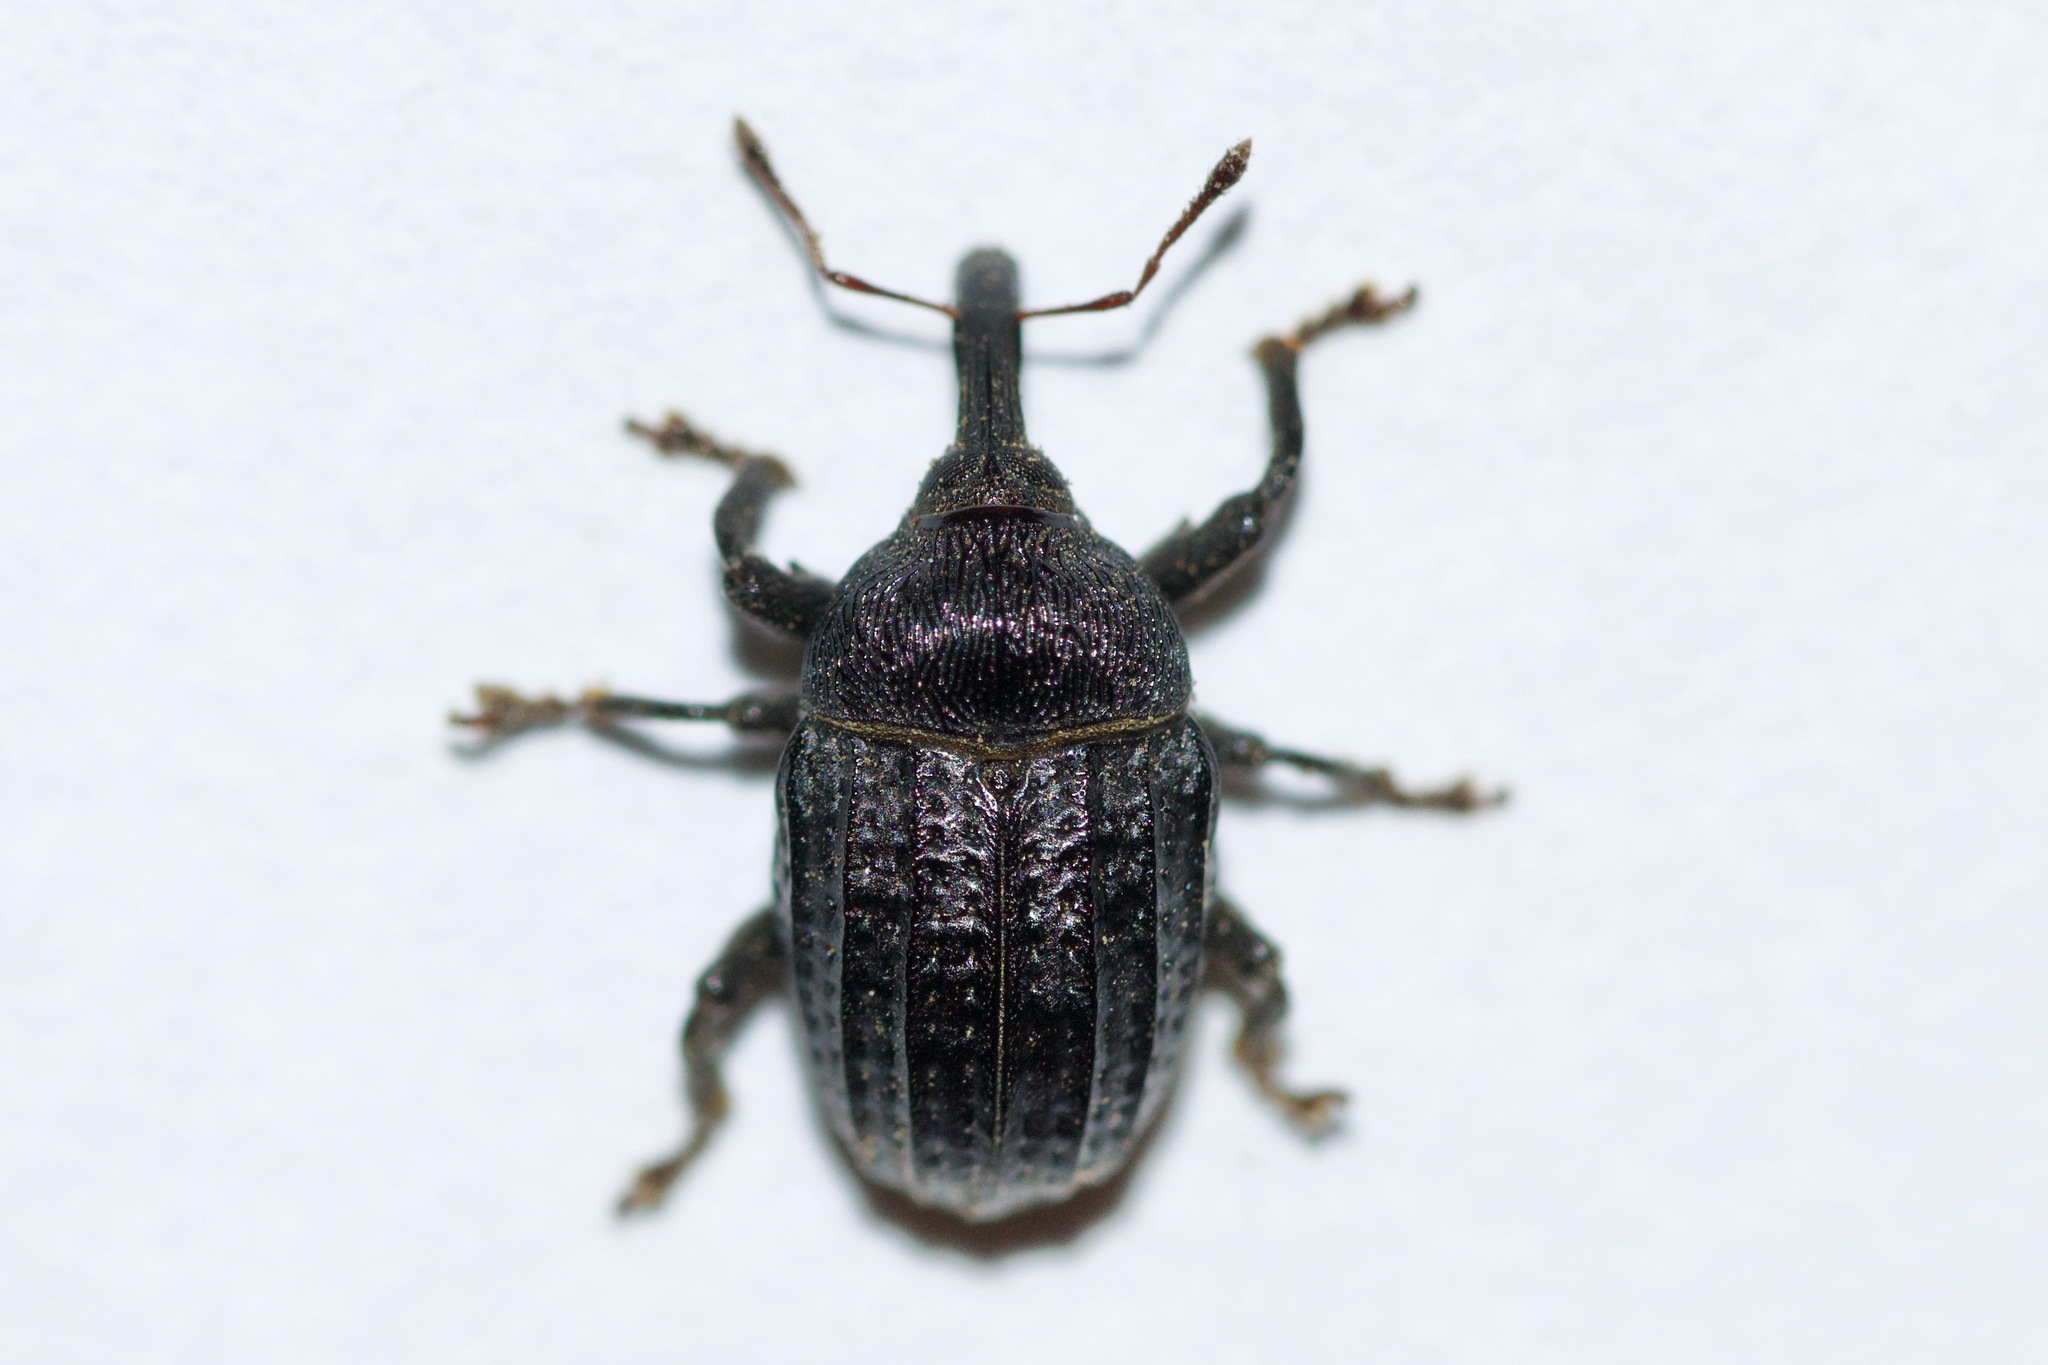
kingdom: Animalia
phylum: Arthropoda
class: Insecta
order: Coleoptera
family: Curculionidae
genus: Rhyssomatus
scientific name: Rhyssomatus lineaticollis
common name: Milkweed stem weevil
